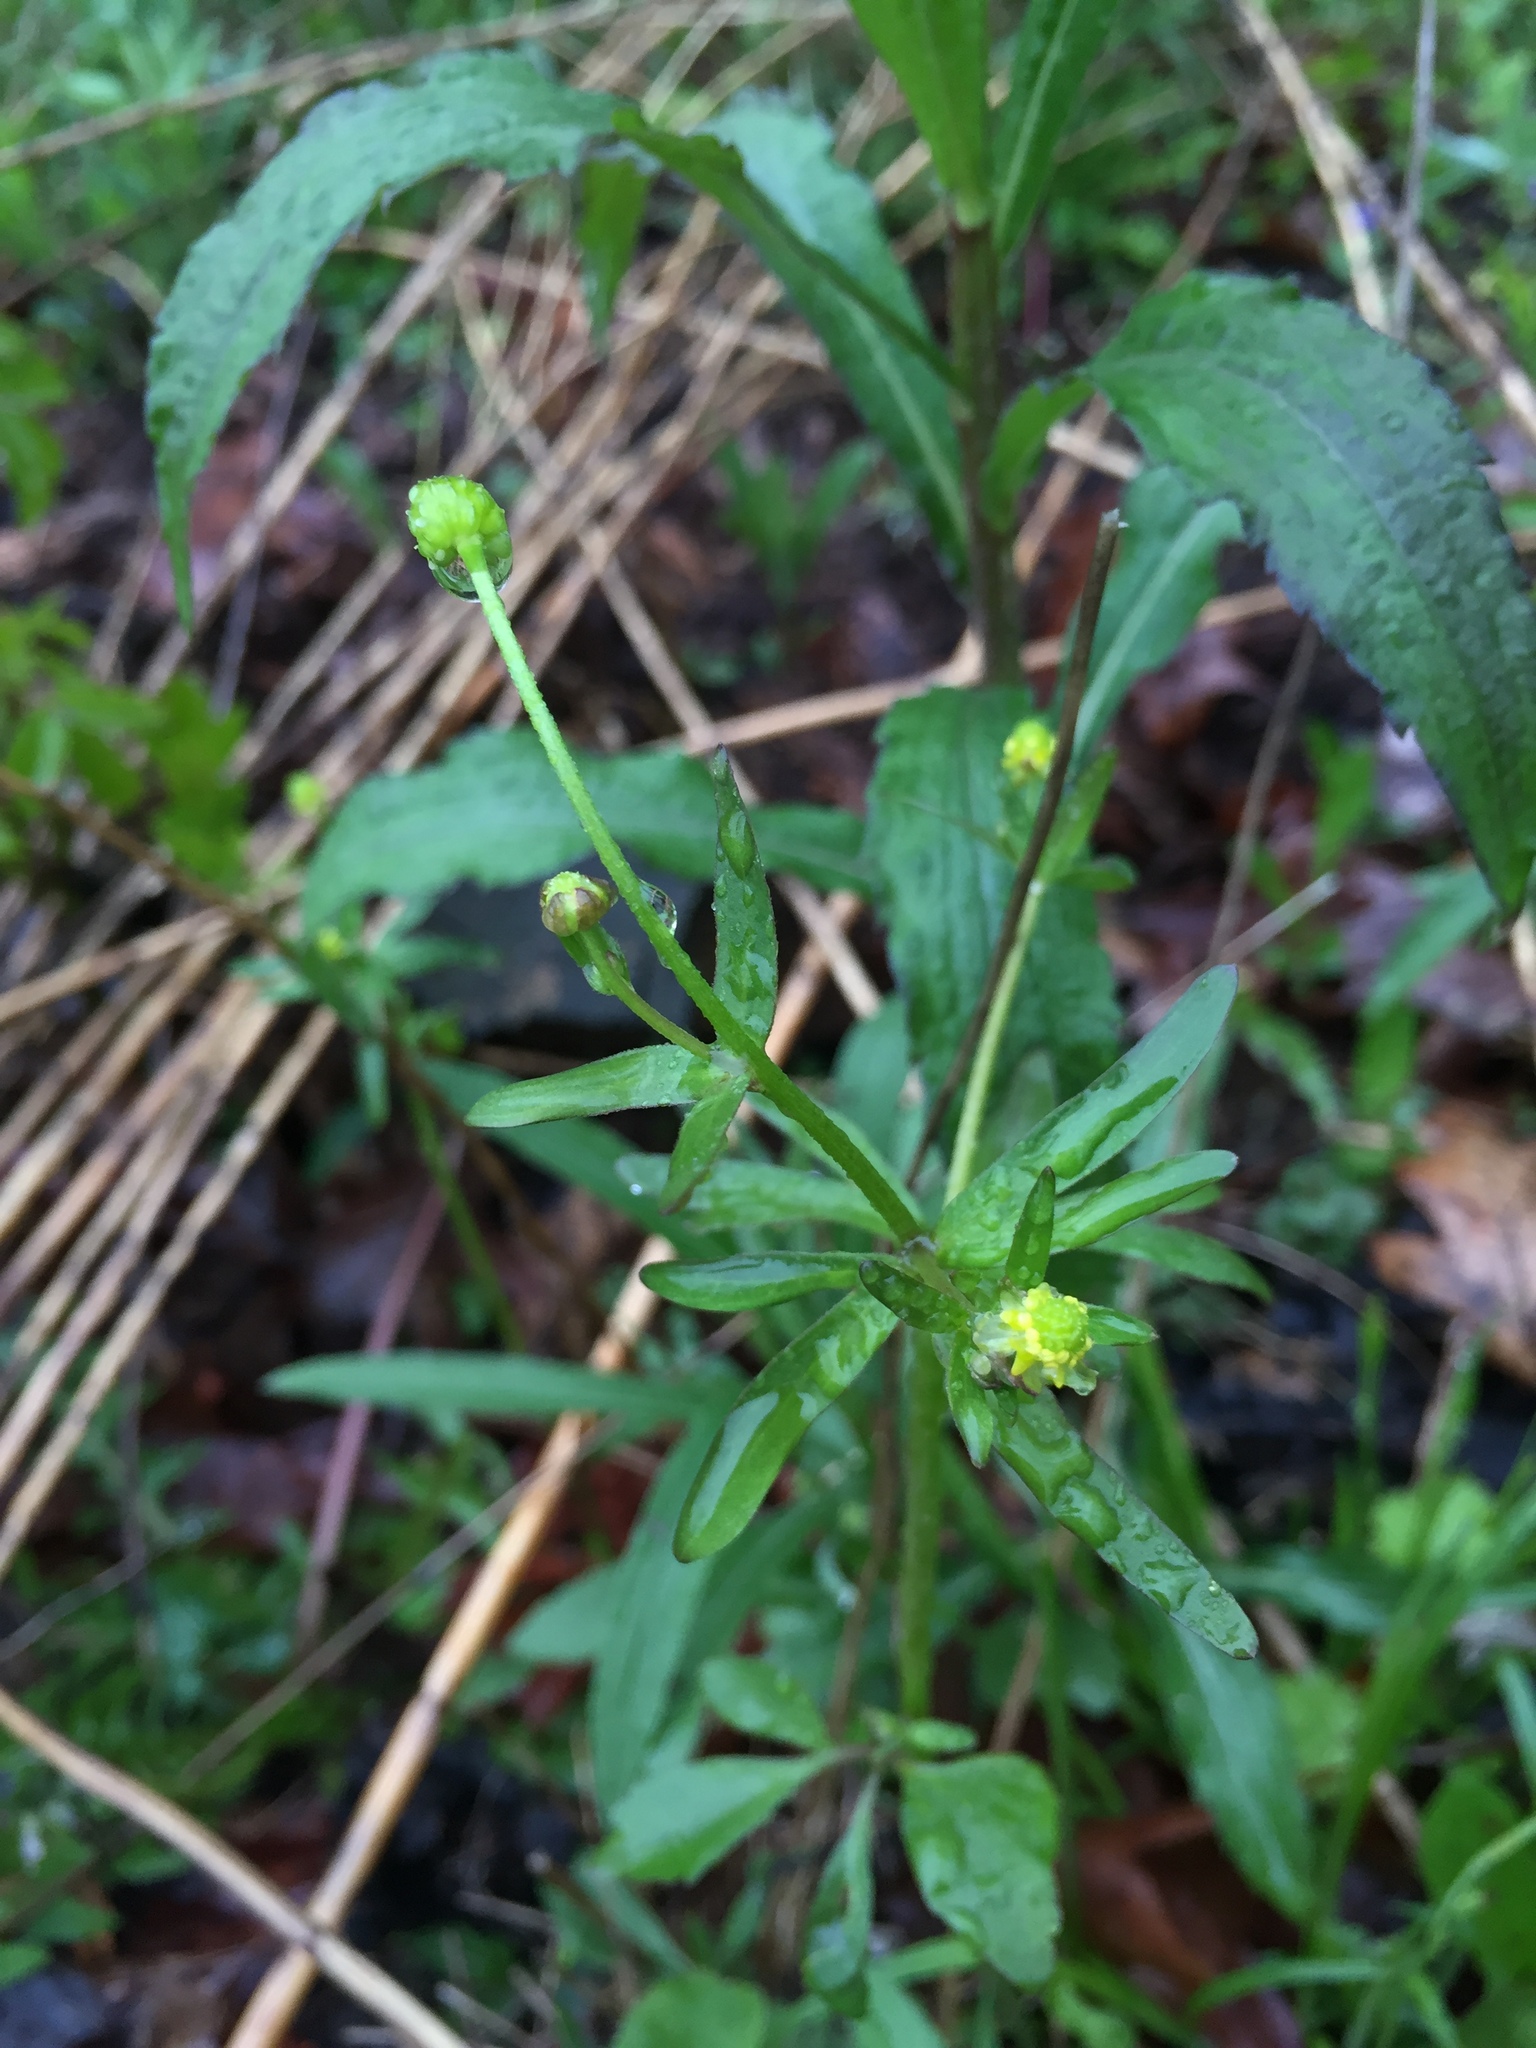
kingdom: Plantae
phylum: Tracheophyta
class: Magnoliopsida
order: Ranunculales
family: Ranunculaceae
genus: Ranunculus
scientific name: Ranunculus abortivus
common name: Early wood buttercup
